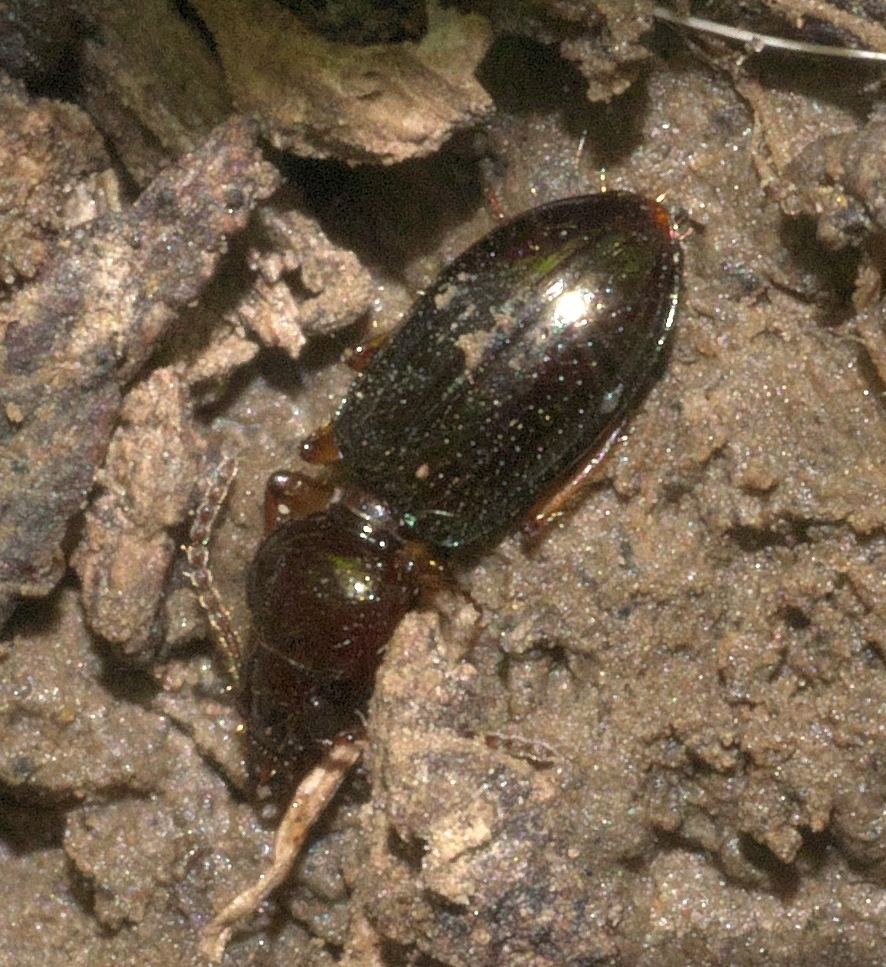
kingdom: Animalia
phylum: Arthropoda
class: Insecta
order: Coleoptera
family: Carabidae
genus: Semiardistomis
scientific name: Semiardistomis puncticollis
